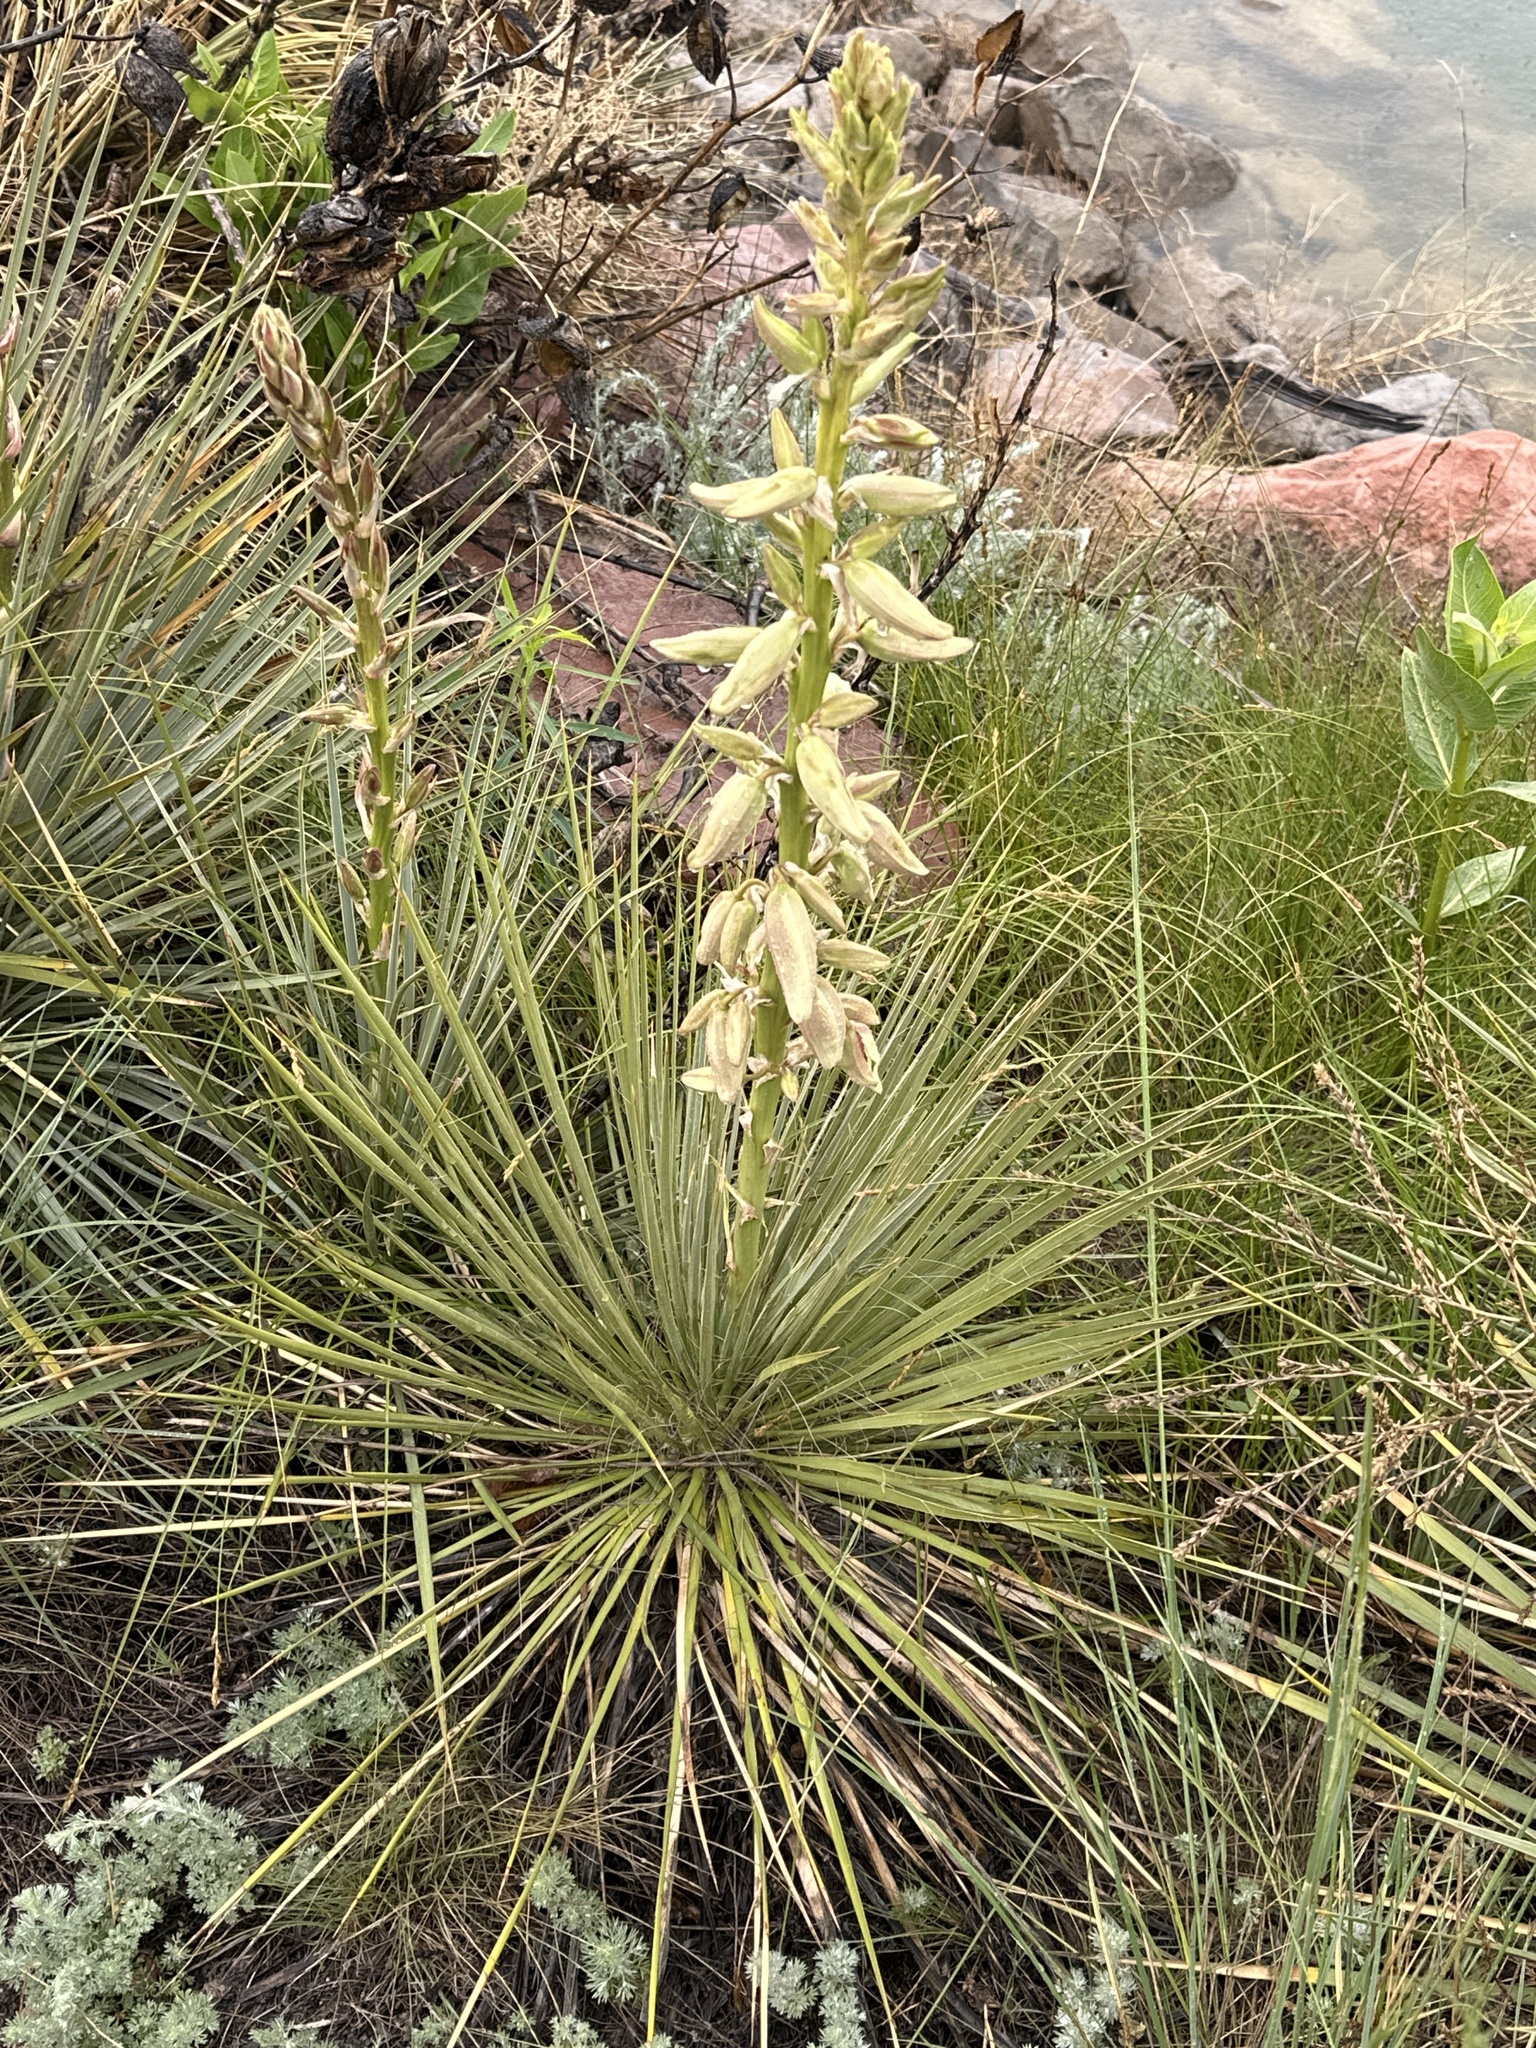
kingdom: Plantae
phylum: Tracheophyta
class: Liliopsida
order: Asparagales
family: Asparagaceae
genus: Yucca
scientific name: Yucca glauca
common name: Great plains yucca
